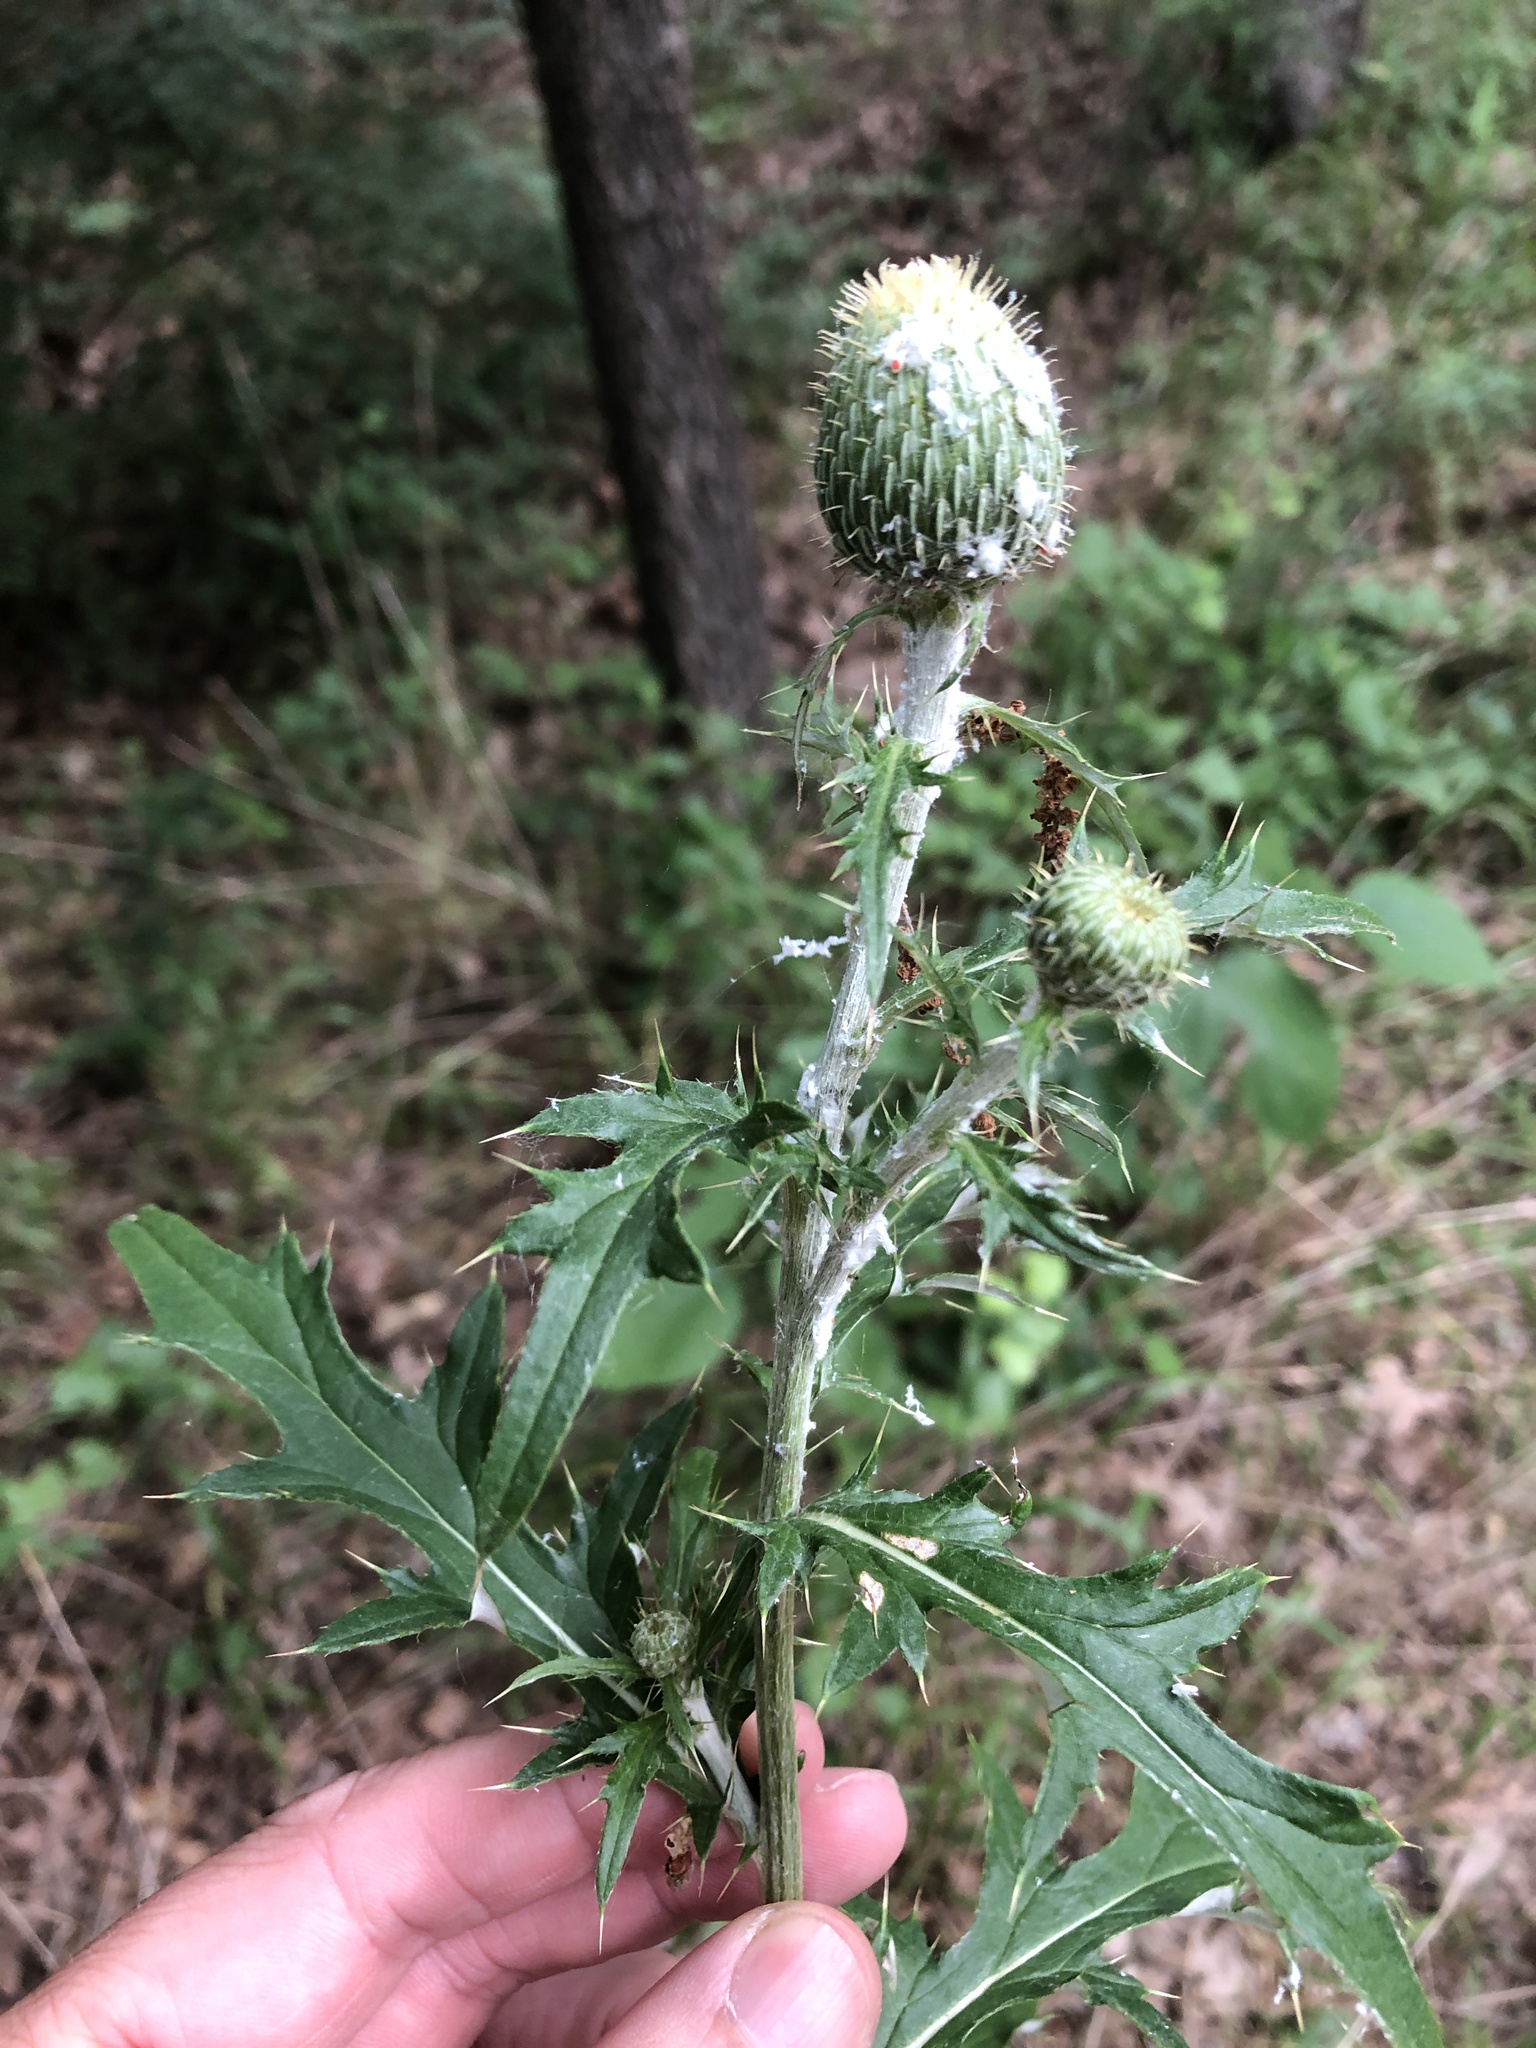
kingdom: Plantae
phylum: Tracheophyta
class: Magnoliopsida
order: Asterales
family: Asteraceae
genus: Cirsium
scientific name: Cirsium altissimum
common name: Roadside thistle
